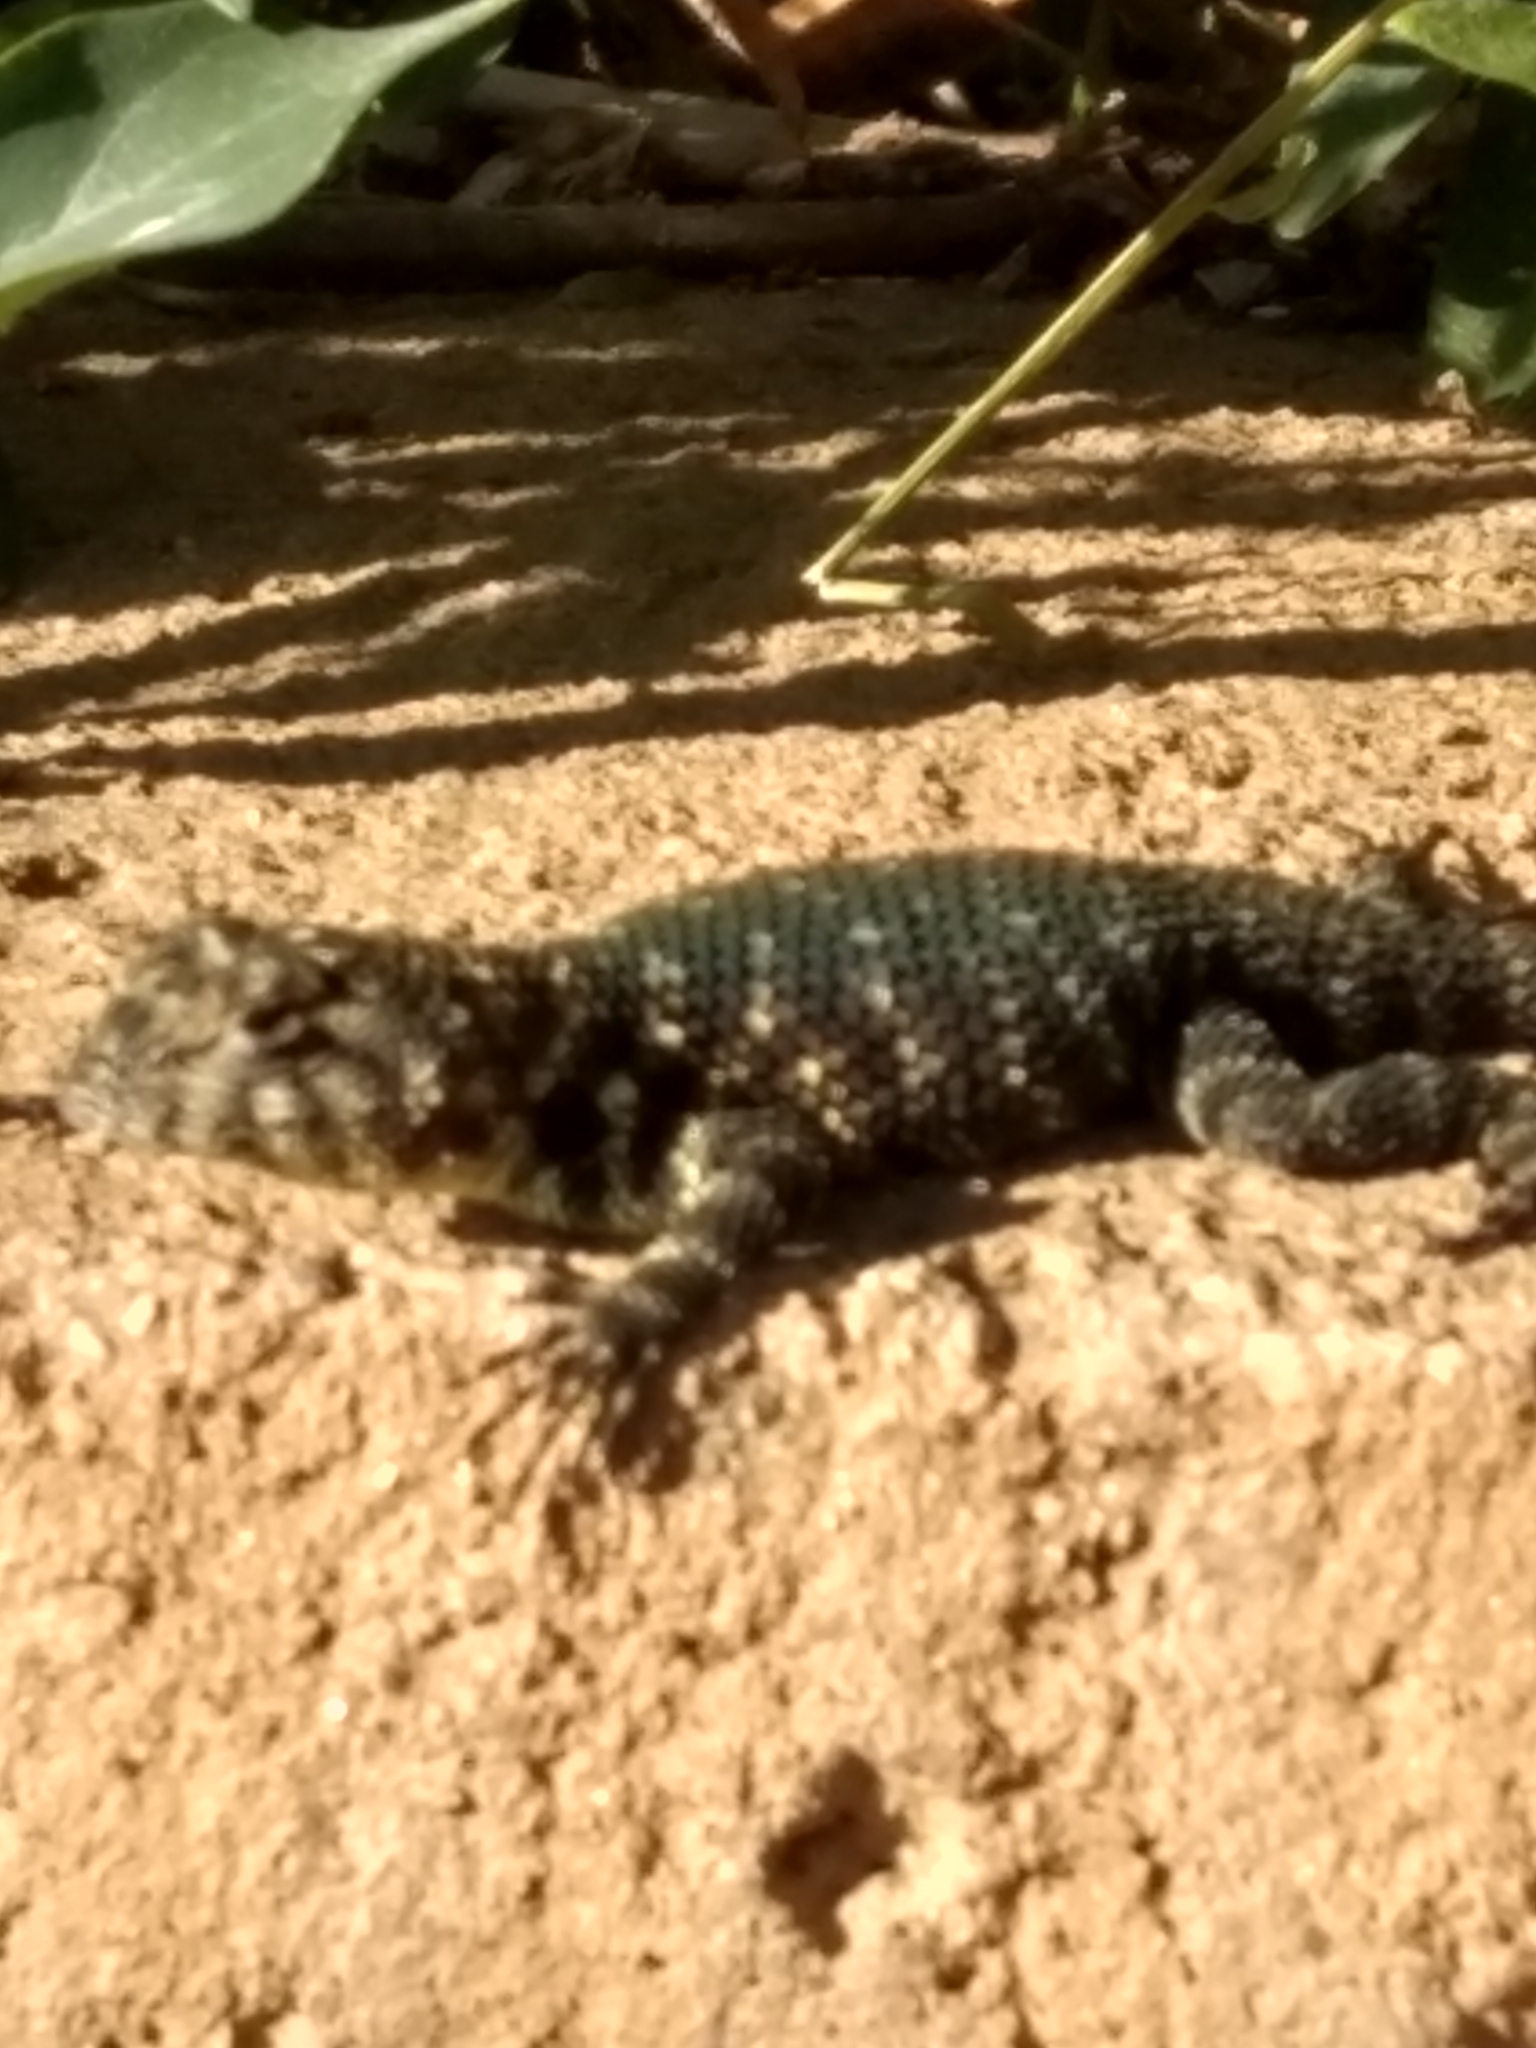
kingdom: Animalia
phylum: Chordata
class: Squamata
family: Phrynosomatidae
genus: Sceloporus
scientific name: Sceloporus orcutti
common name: Granite spiny lizard
